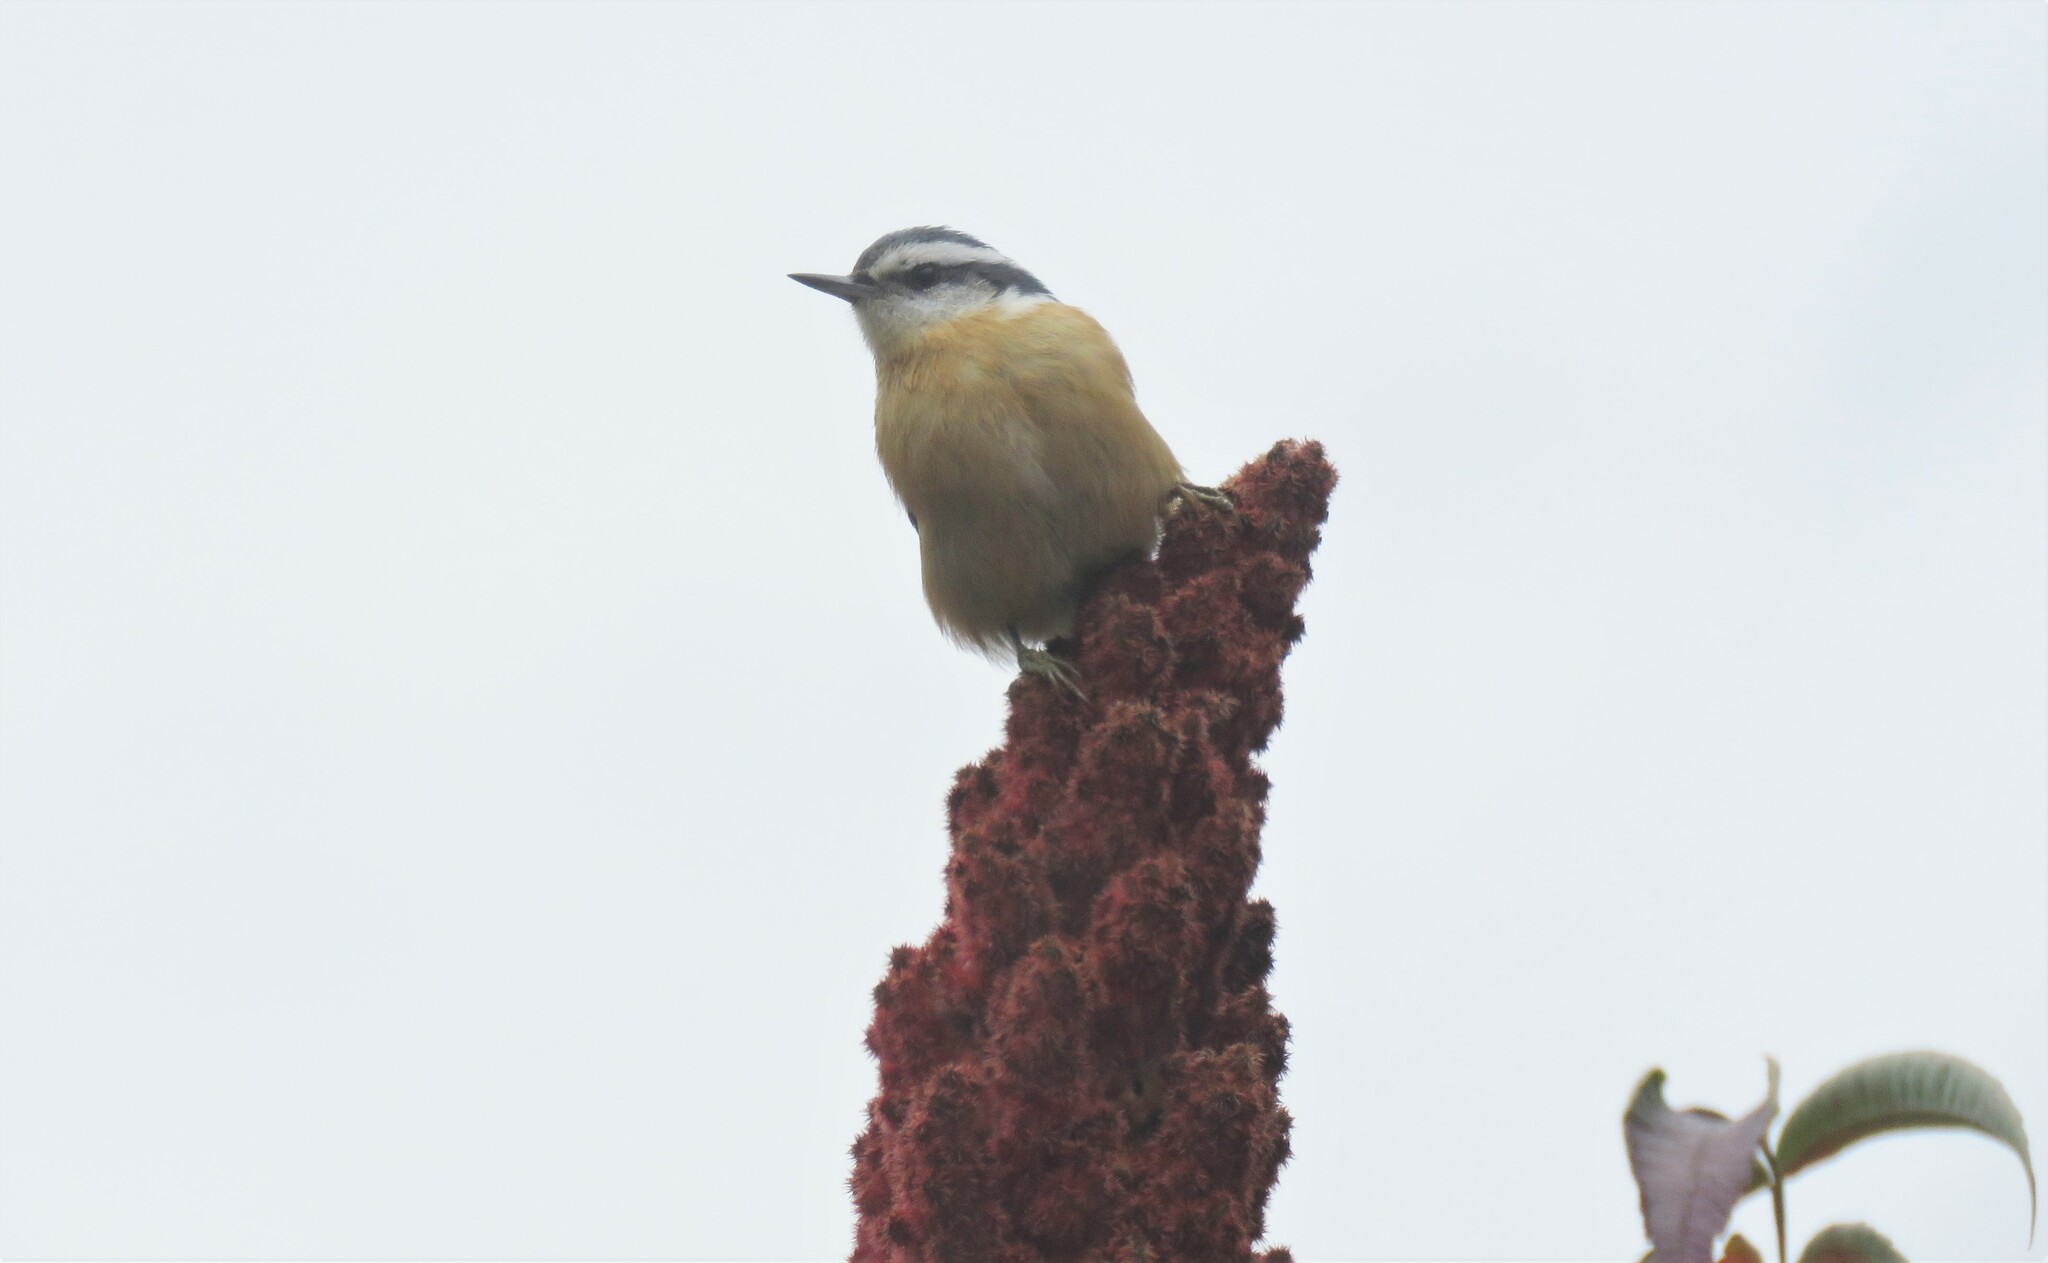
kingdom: Animalia
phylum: Chordata
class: Aves
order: Passeriformes
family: Sittidae
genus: Sitta
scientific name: Sitta canadensis
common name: Red-breasted nuthatch
